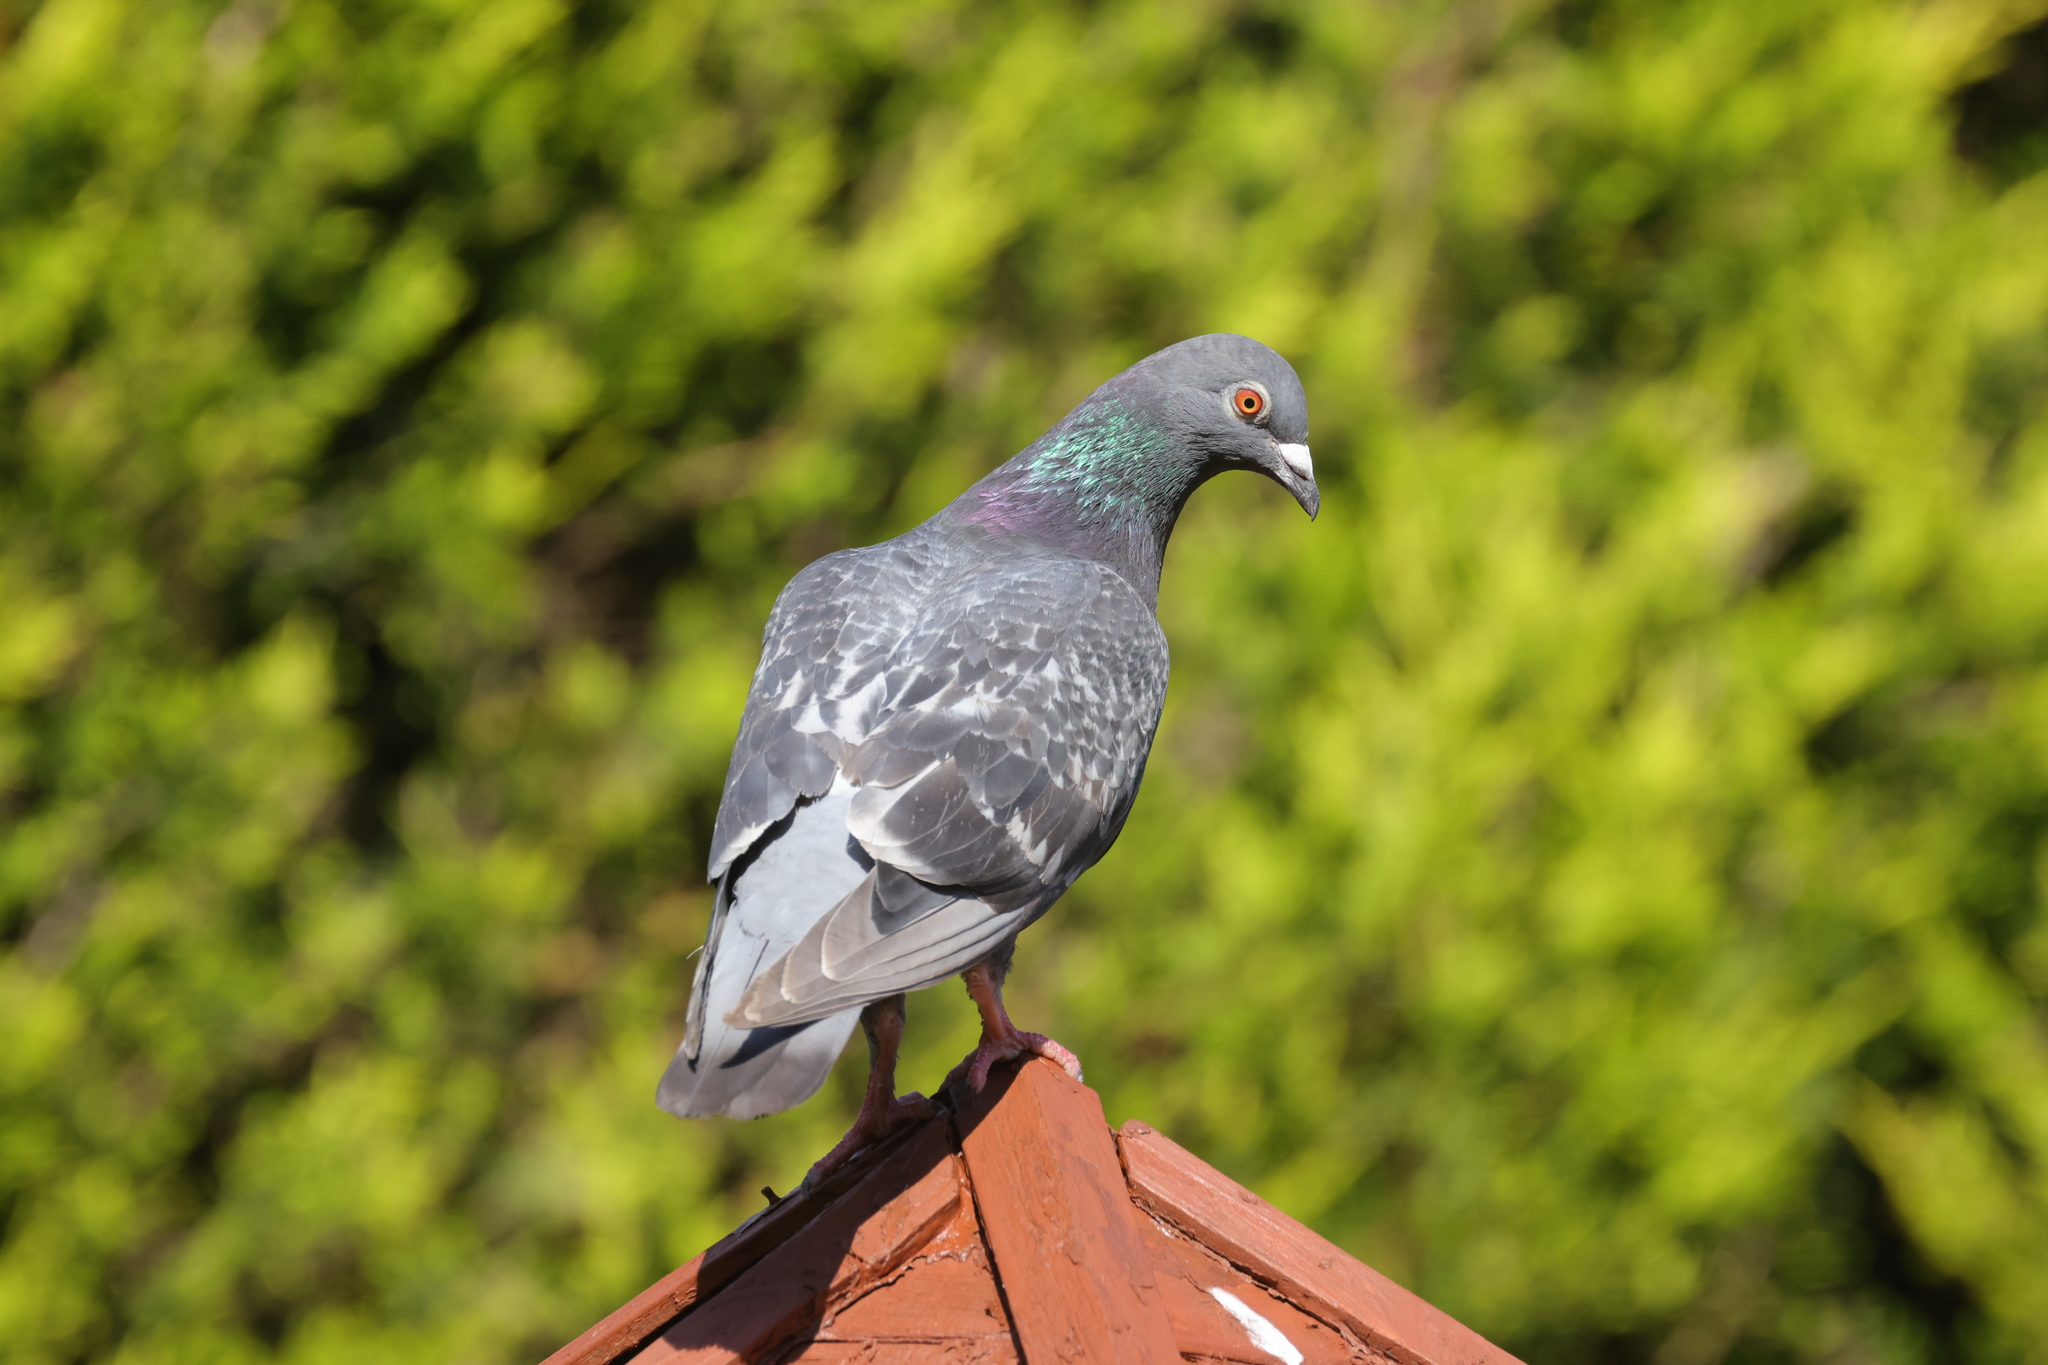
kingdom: Animalia
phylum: Chordata
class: Aves
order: Columbiformes
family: Columbidae
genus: Columba
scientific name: Columba livia
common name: Rock pigeon
